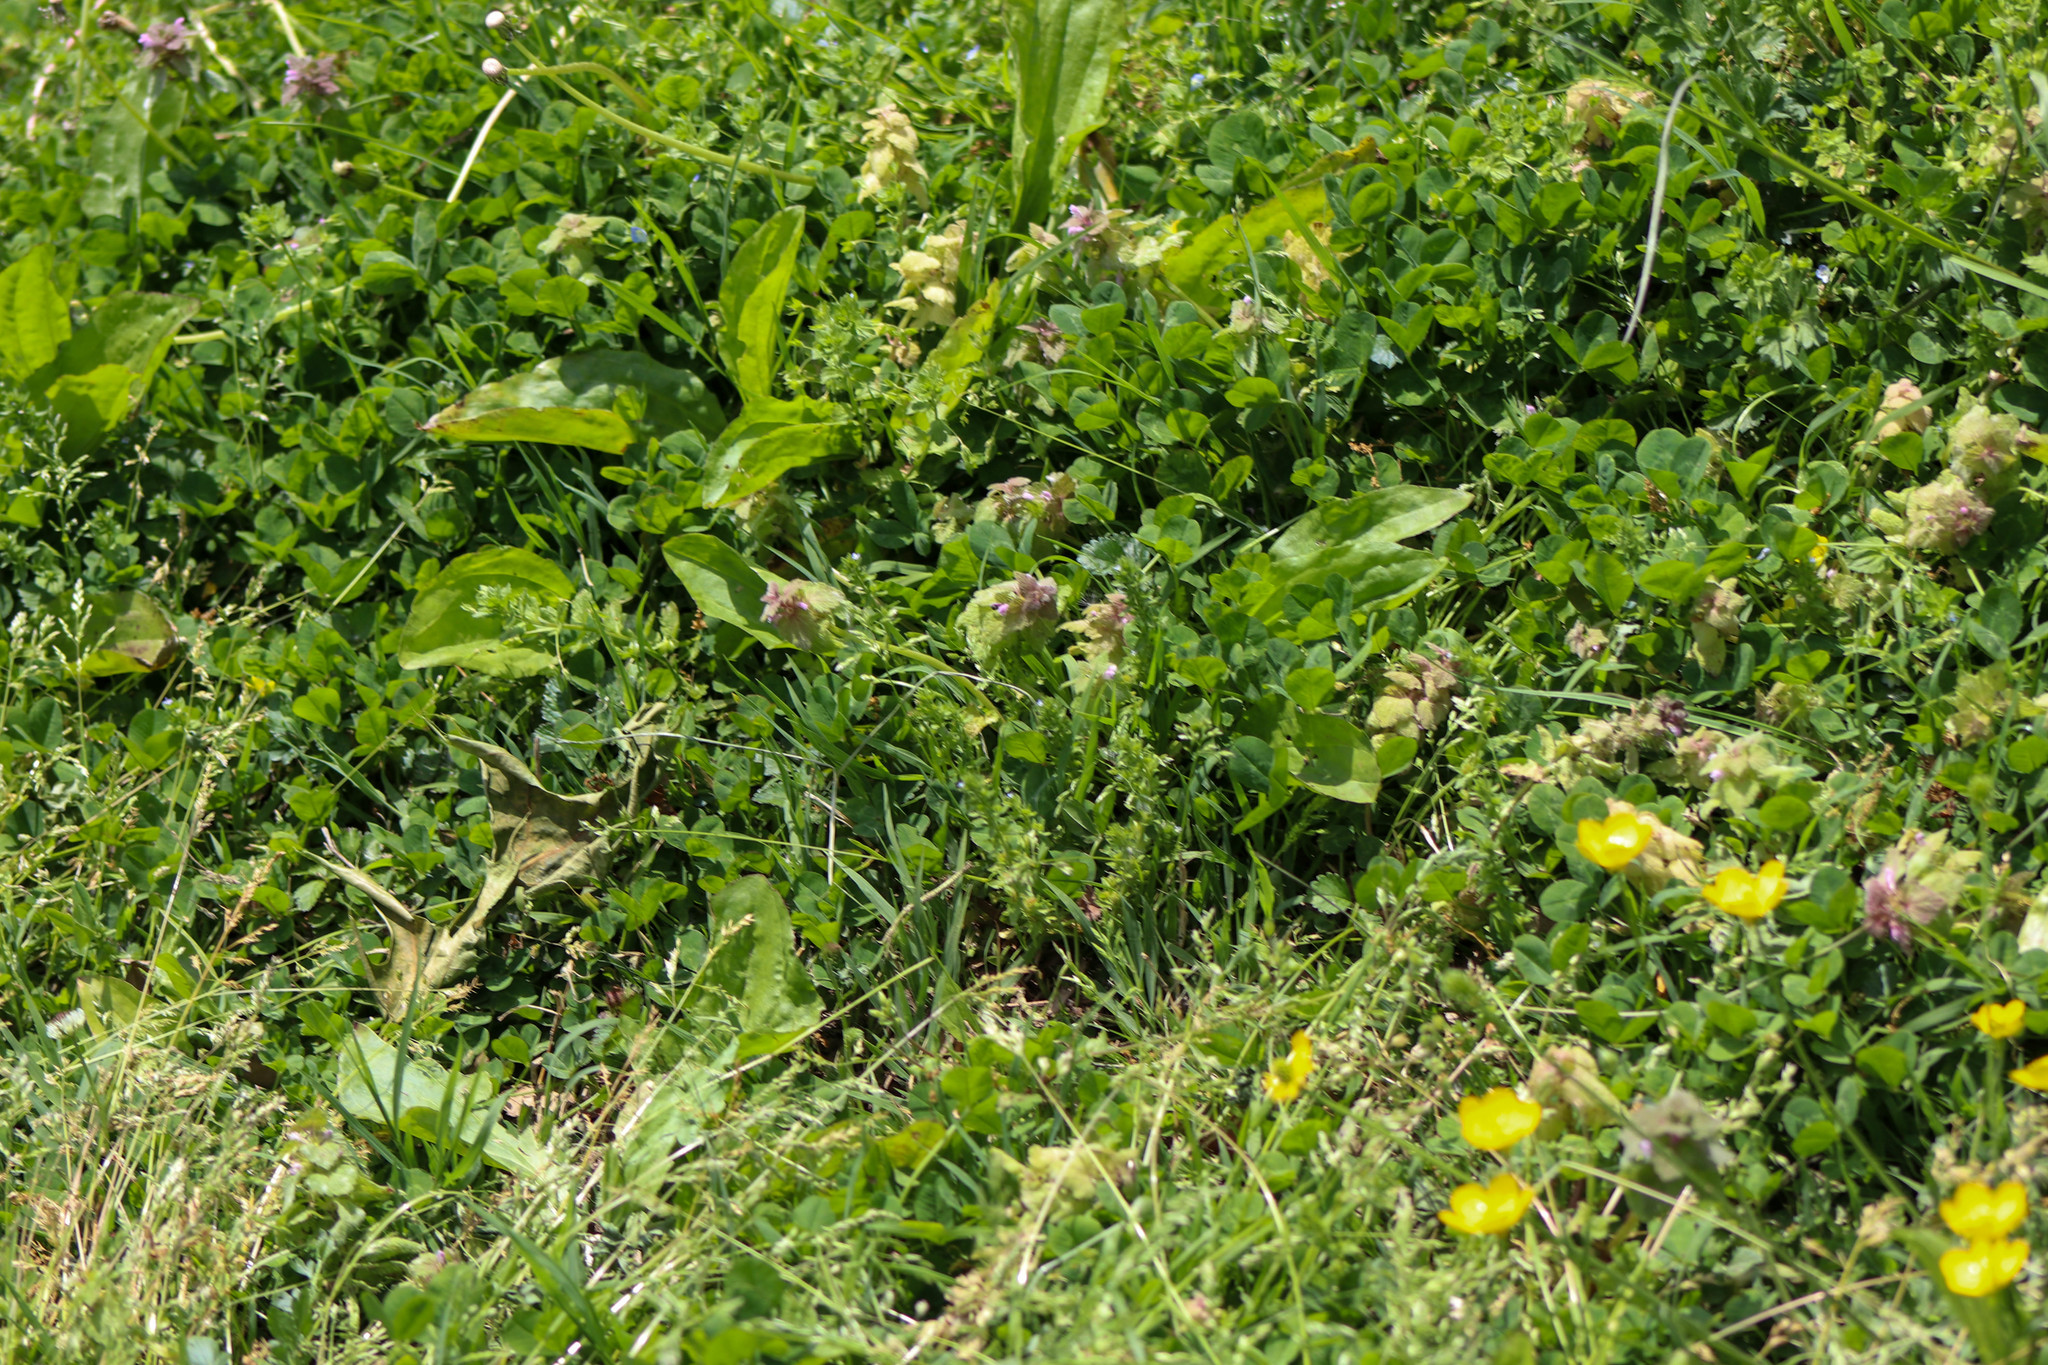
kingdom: Plantae
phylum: Tracheophyta
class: Magnoliopsida
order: Lamiales
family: Lamiaceae
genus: Lamium
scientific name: Lamium purpureum
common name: Red dead-nettle
